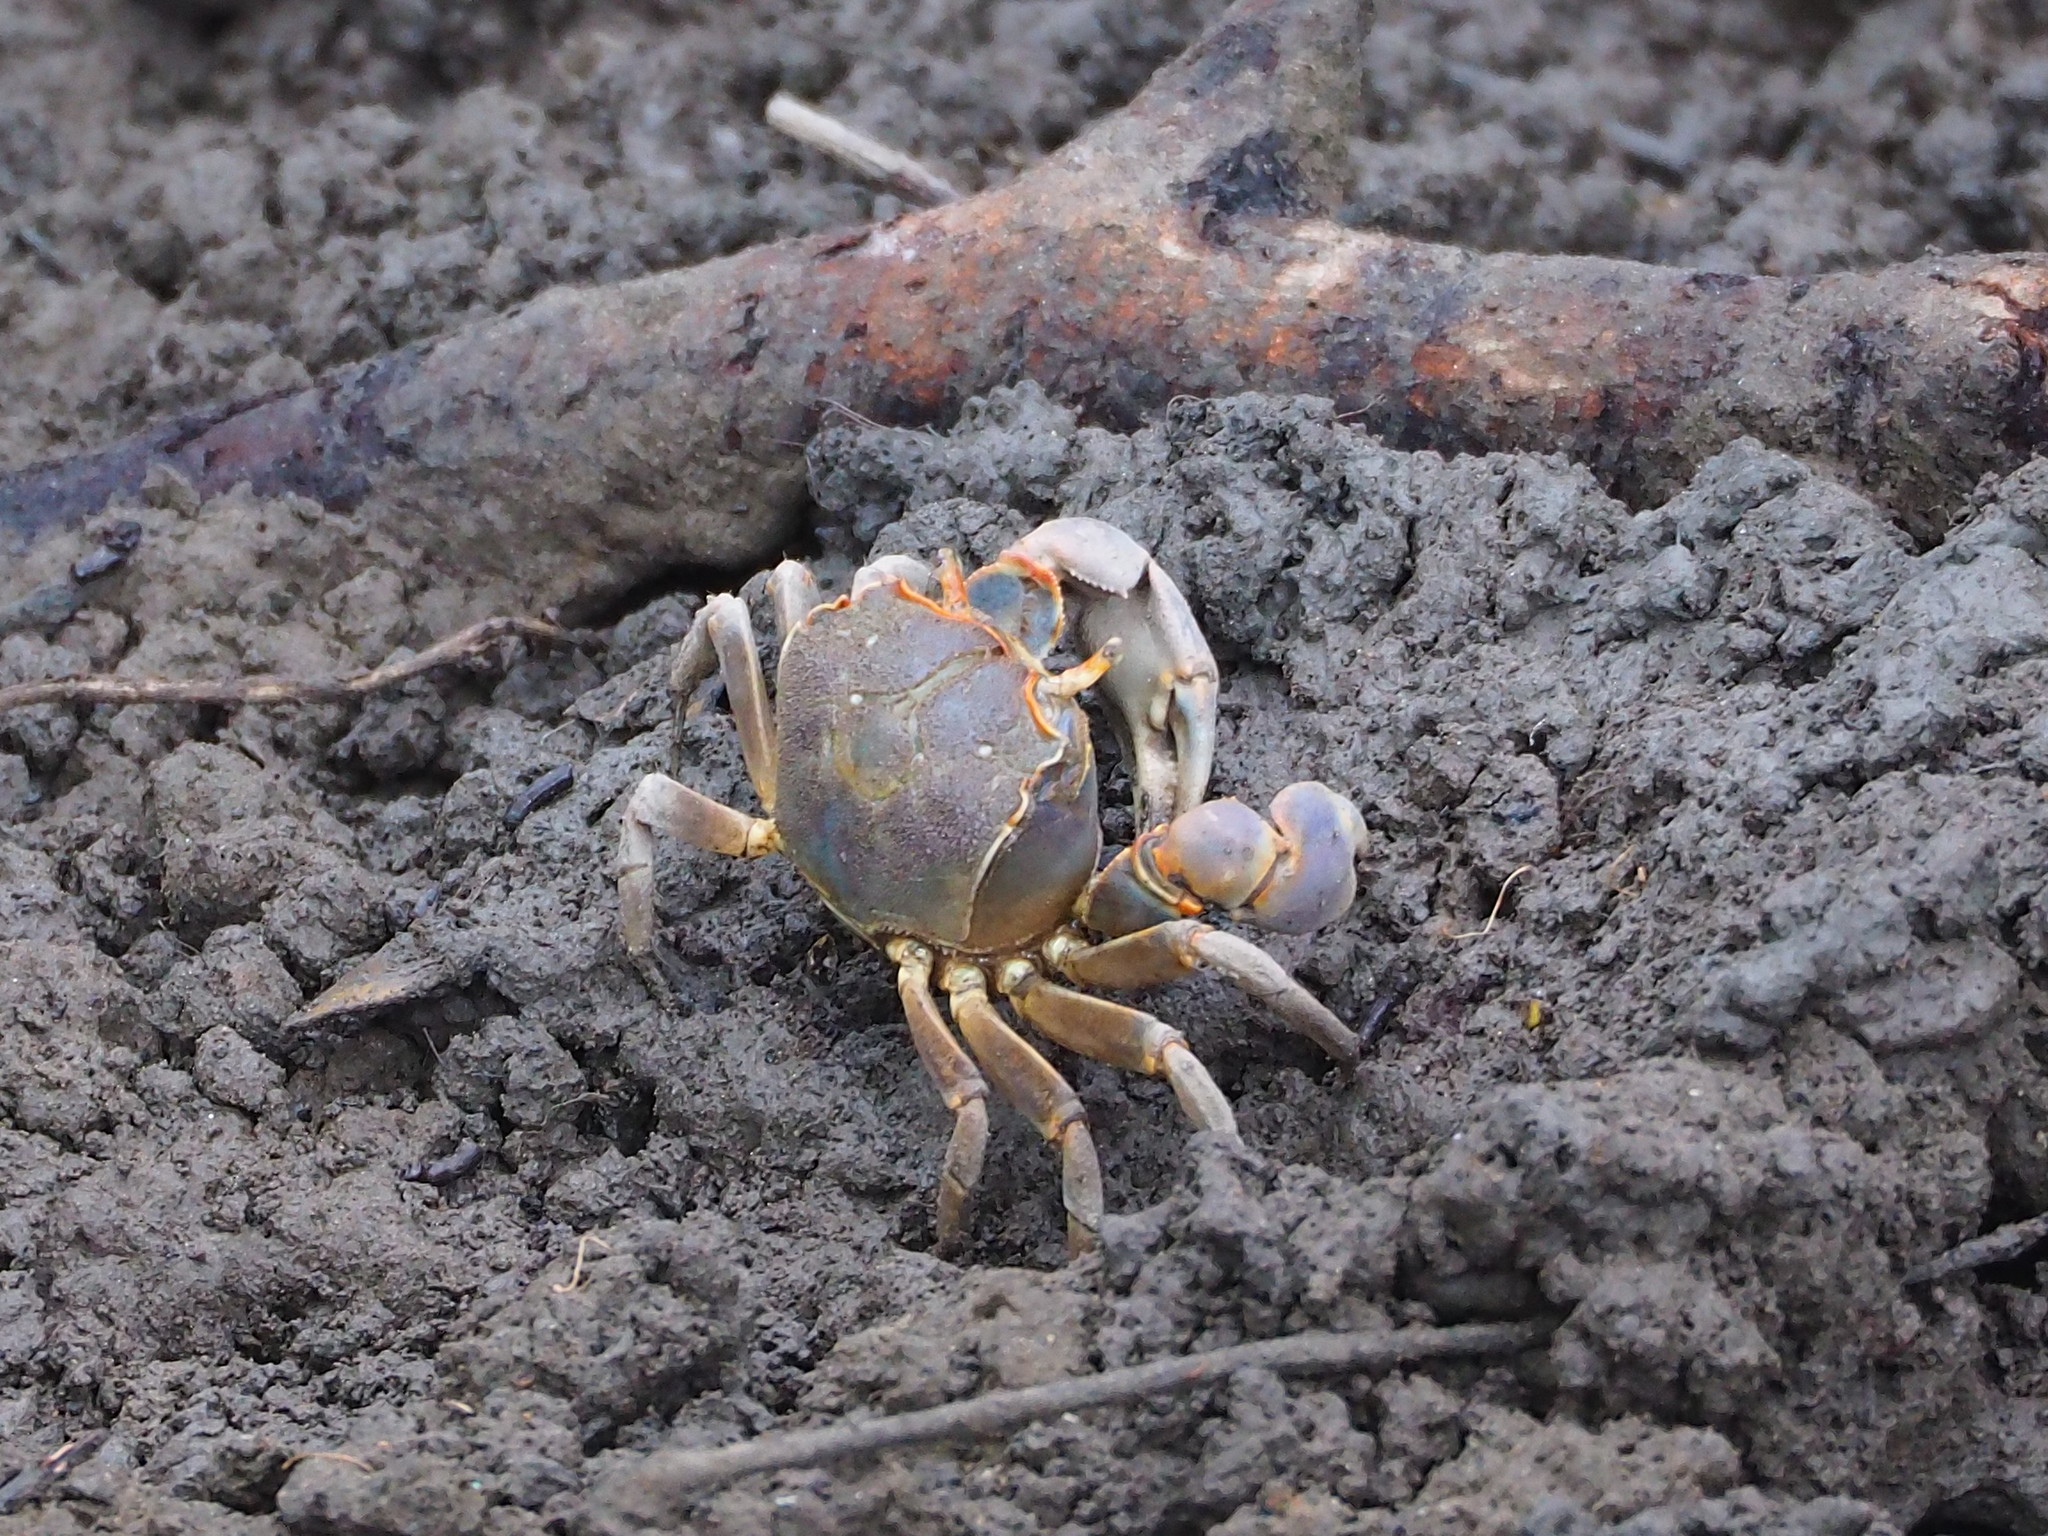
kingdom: Animalia
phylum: Arthropoda
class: Malacostraca
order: Decapoda
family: Varunidae
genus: Chasmagnathus
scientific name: Chasmagnathus convexus
